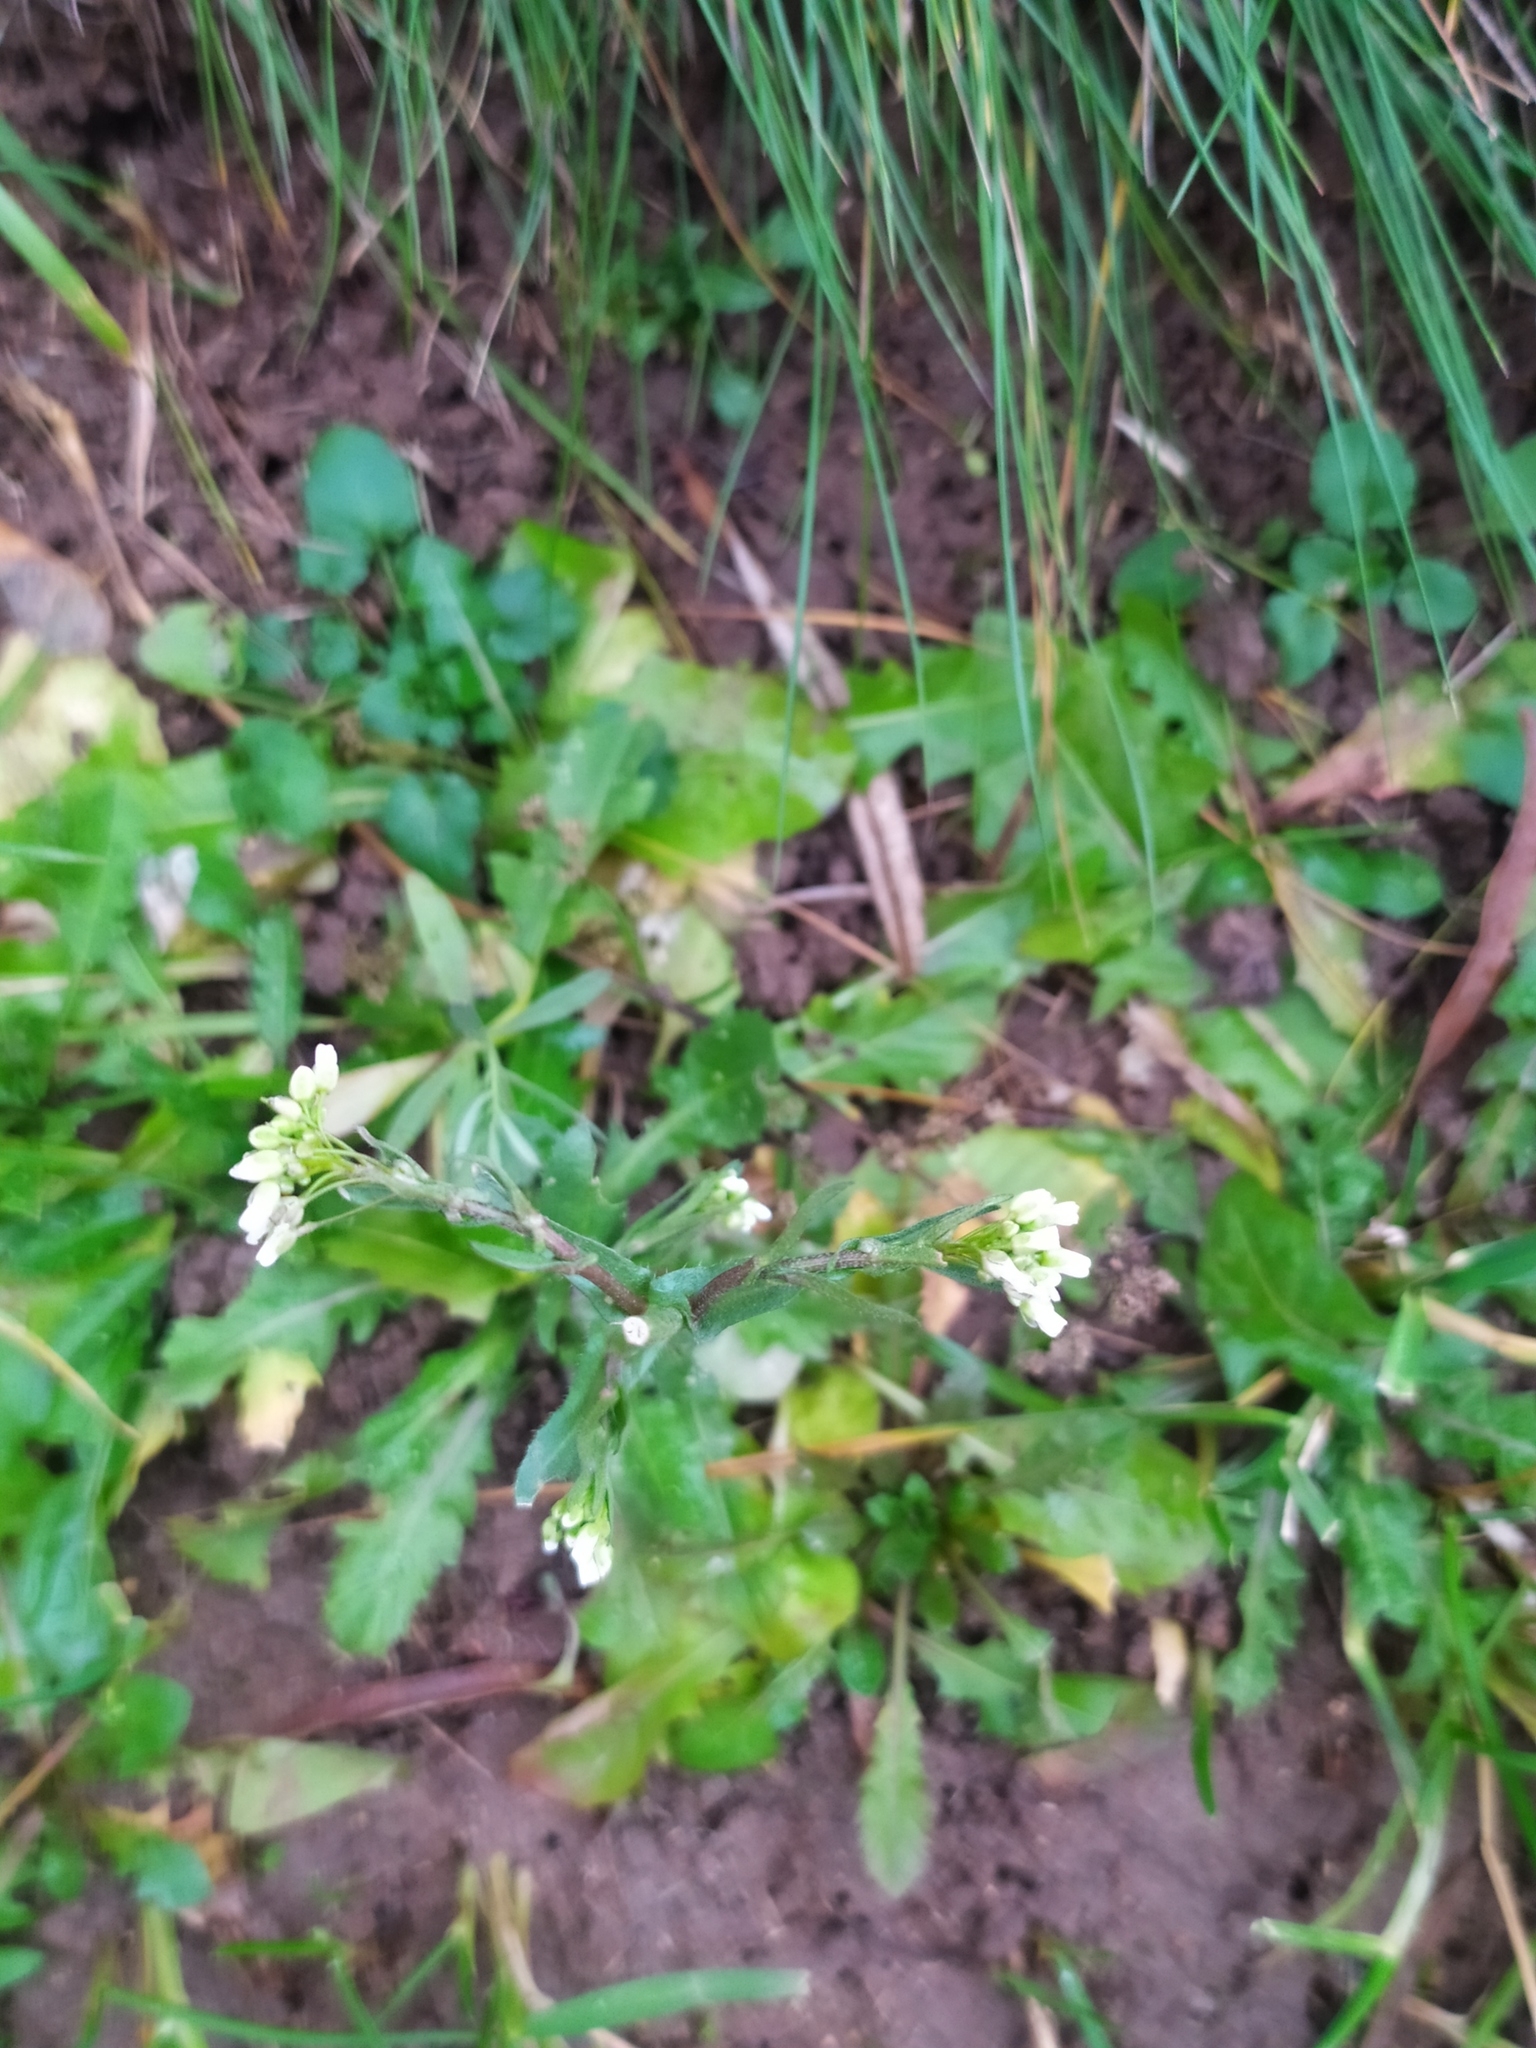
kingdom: Plantae
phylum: Tracheophyta
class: Magnoliopsida
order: Brassicales
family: Brassicaceae
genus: Capsella
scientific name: Capsella bursa-pastoris
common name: Shepherd's purse
